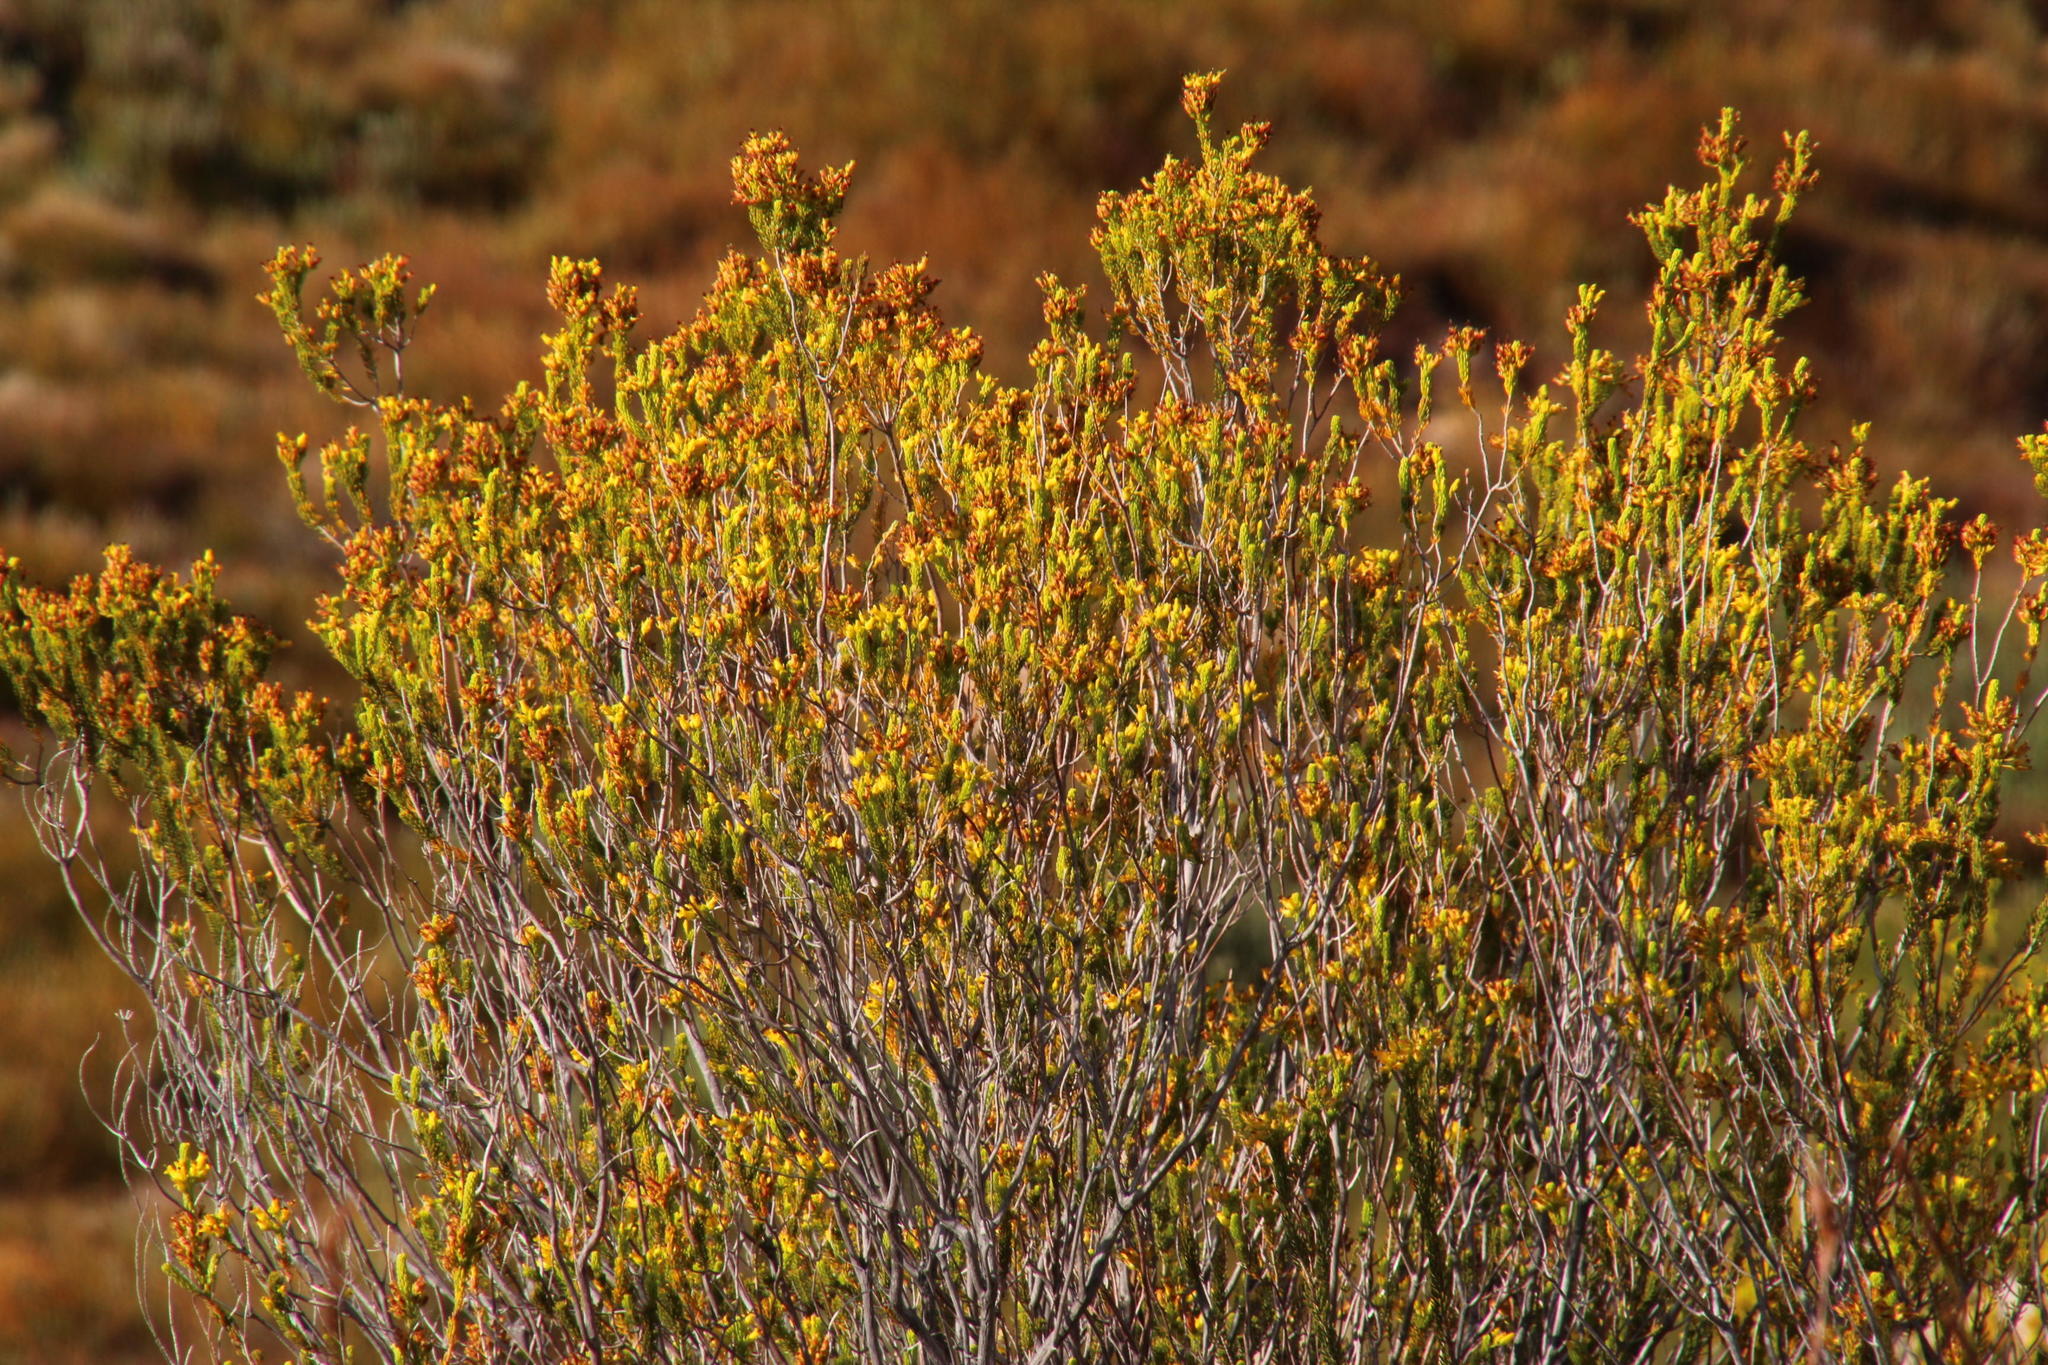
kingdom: Plantae
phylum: Tracheophyta
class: Magnoliopsida
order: Ericales
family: Ericaceae
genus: Erica
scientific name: Erica parilis
